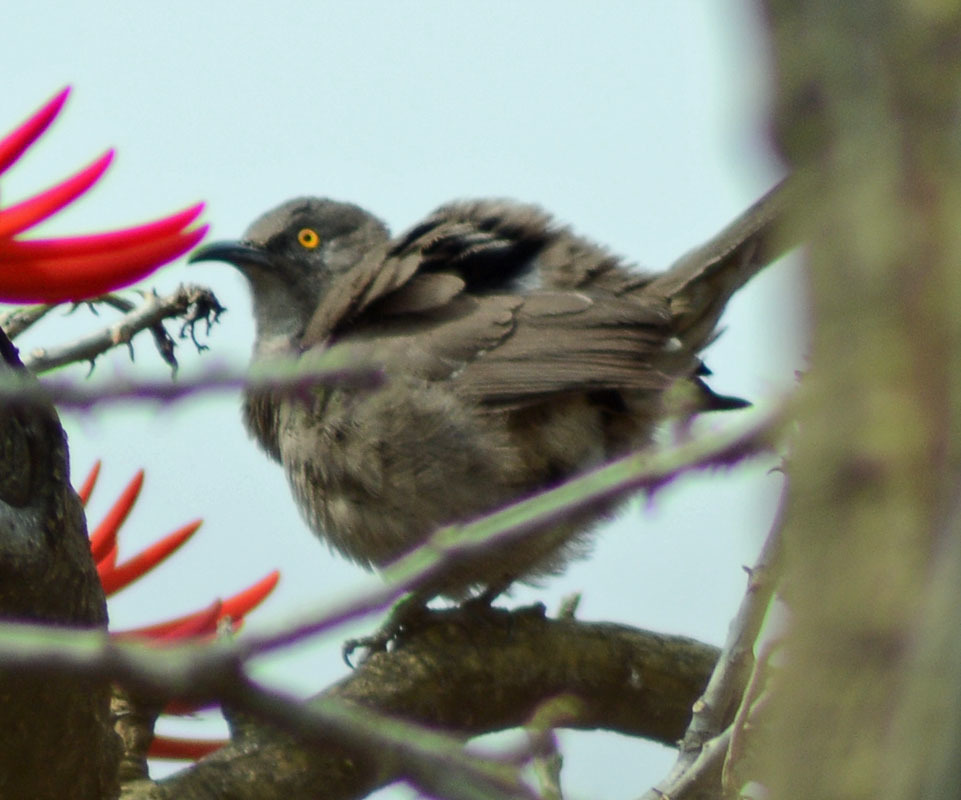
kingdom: Animalia
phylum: Chordata
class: Aves
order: Passeriformes
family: Mimidae
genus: Toxostoma
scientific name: Toxostoma curvirostre
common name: Curve-billed thrasher
